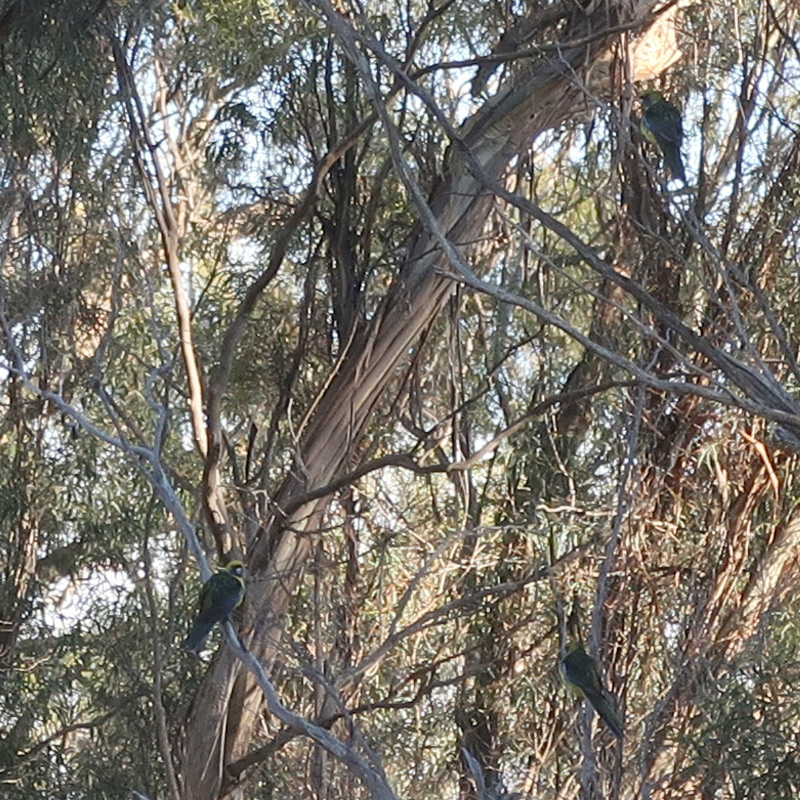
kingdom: Animalia
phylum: Chordata
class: Aves
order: Psittaciformes
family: Psittacidae
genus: Platycercus
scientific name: Platycercus caledonicus
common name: Green rosella
